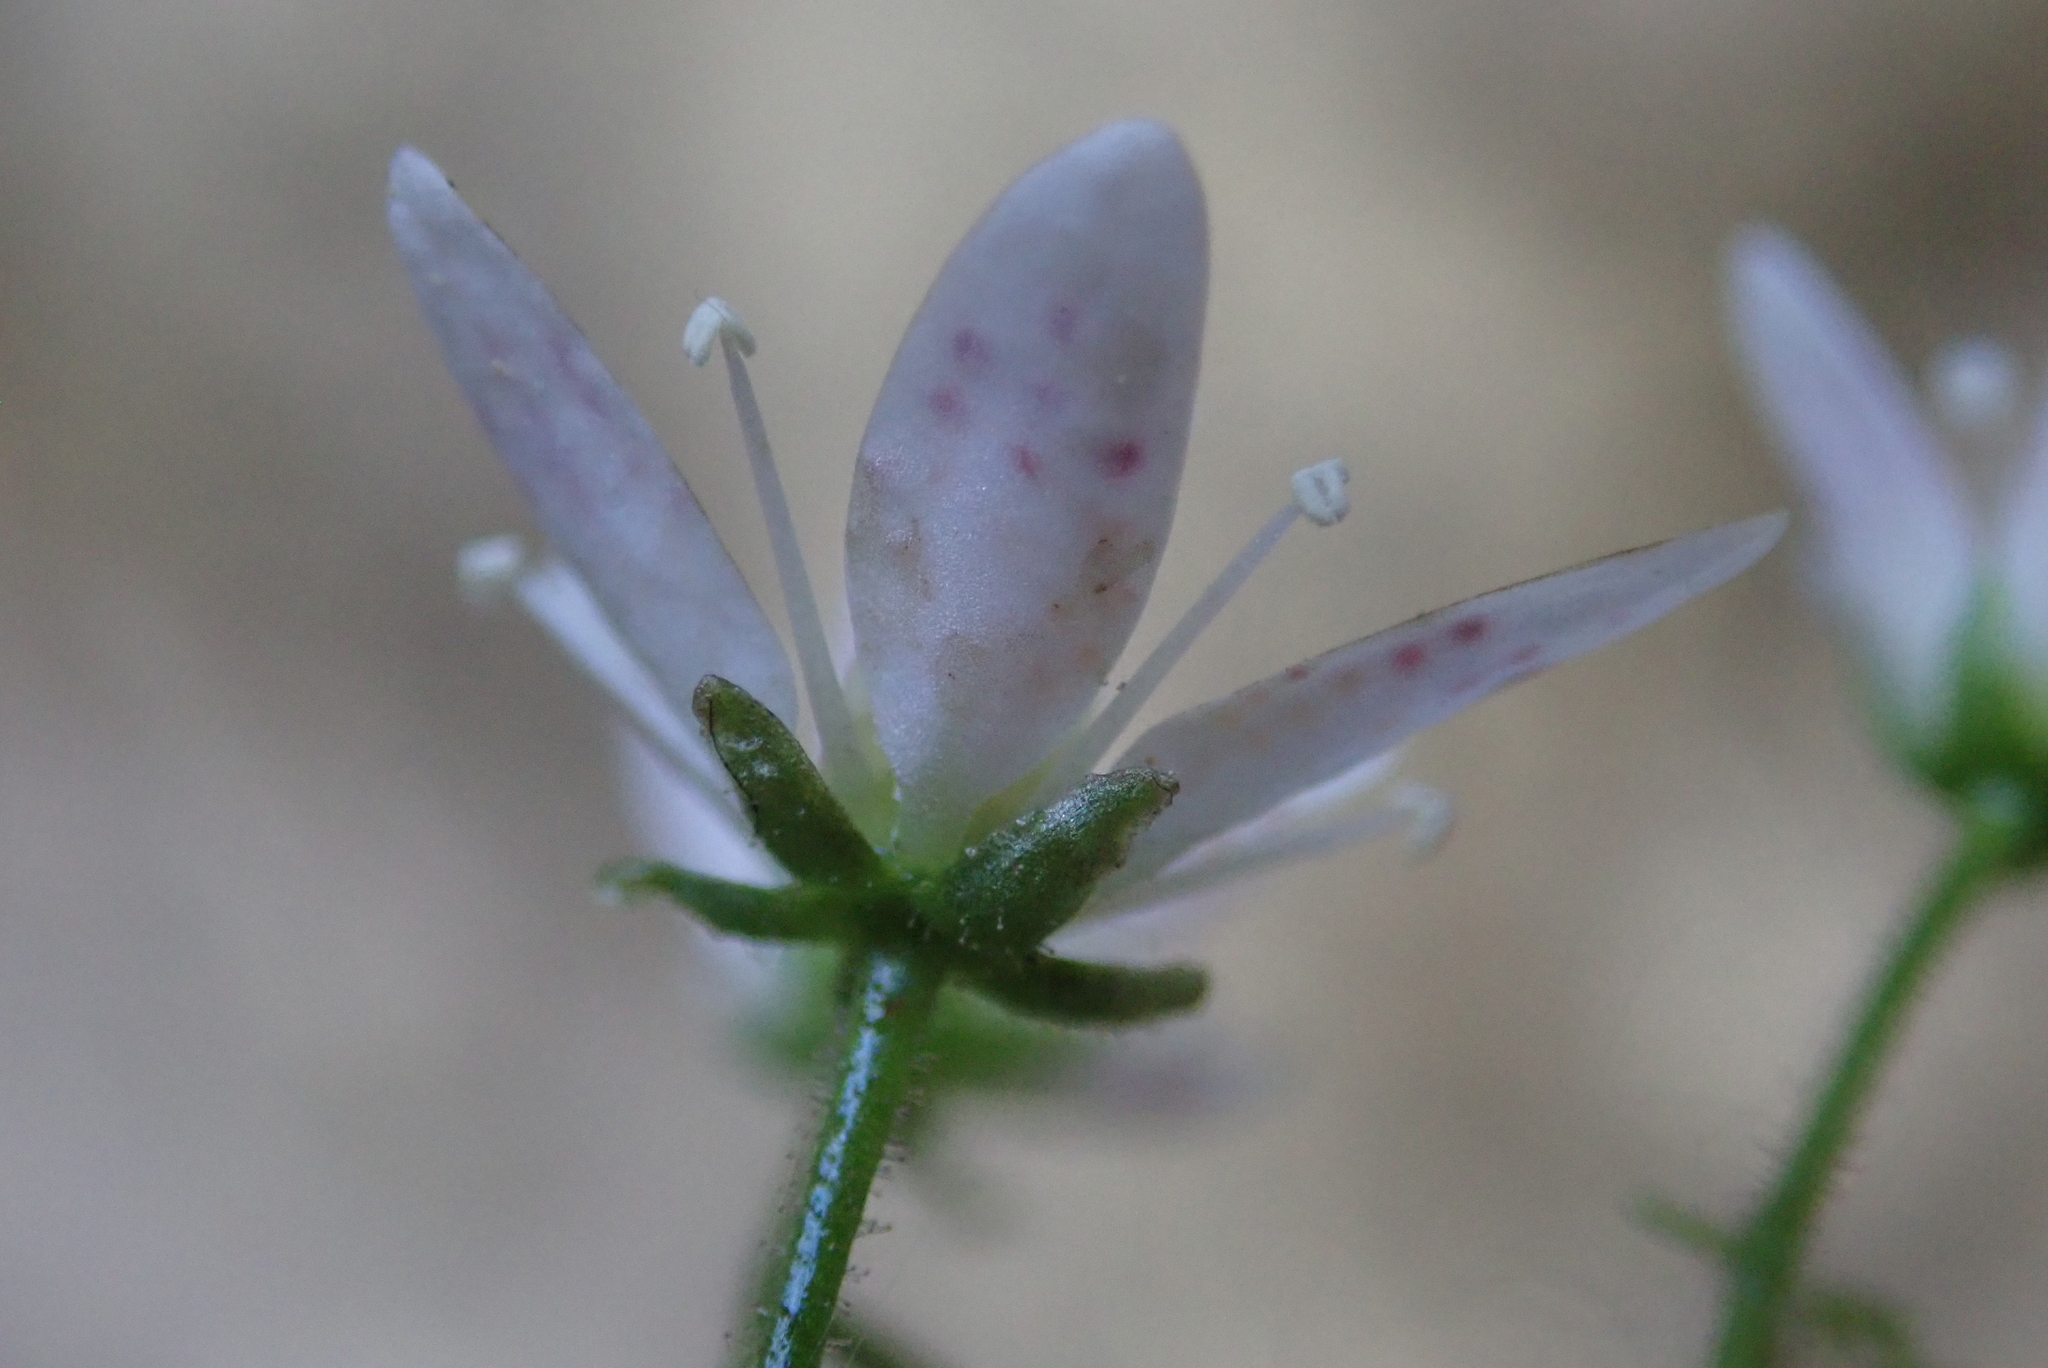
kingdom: Plantae
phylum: Tracheophyta
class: Magnoliopsida
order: Saxifragales
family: Saxifragaceae
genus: Saxifraga
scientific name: Saxifraga rotundifolia
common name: Round-leaved saxifrage
